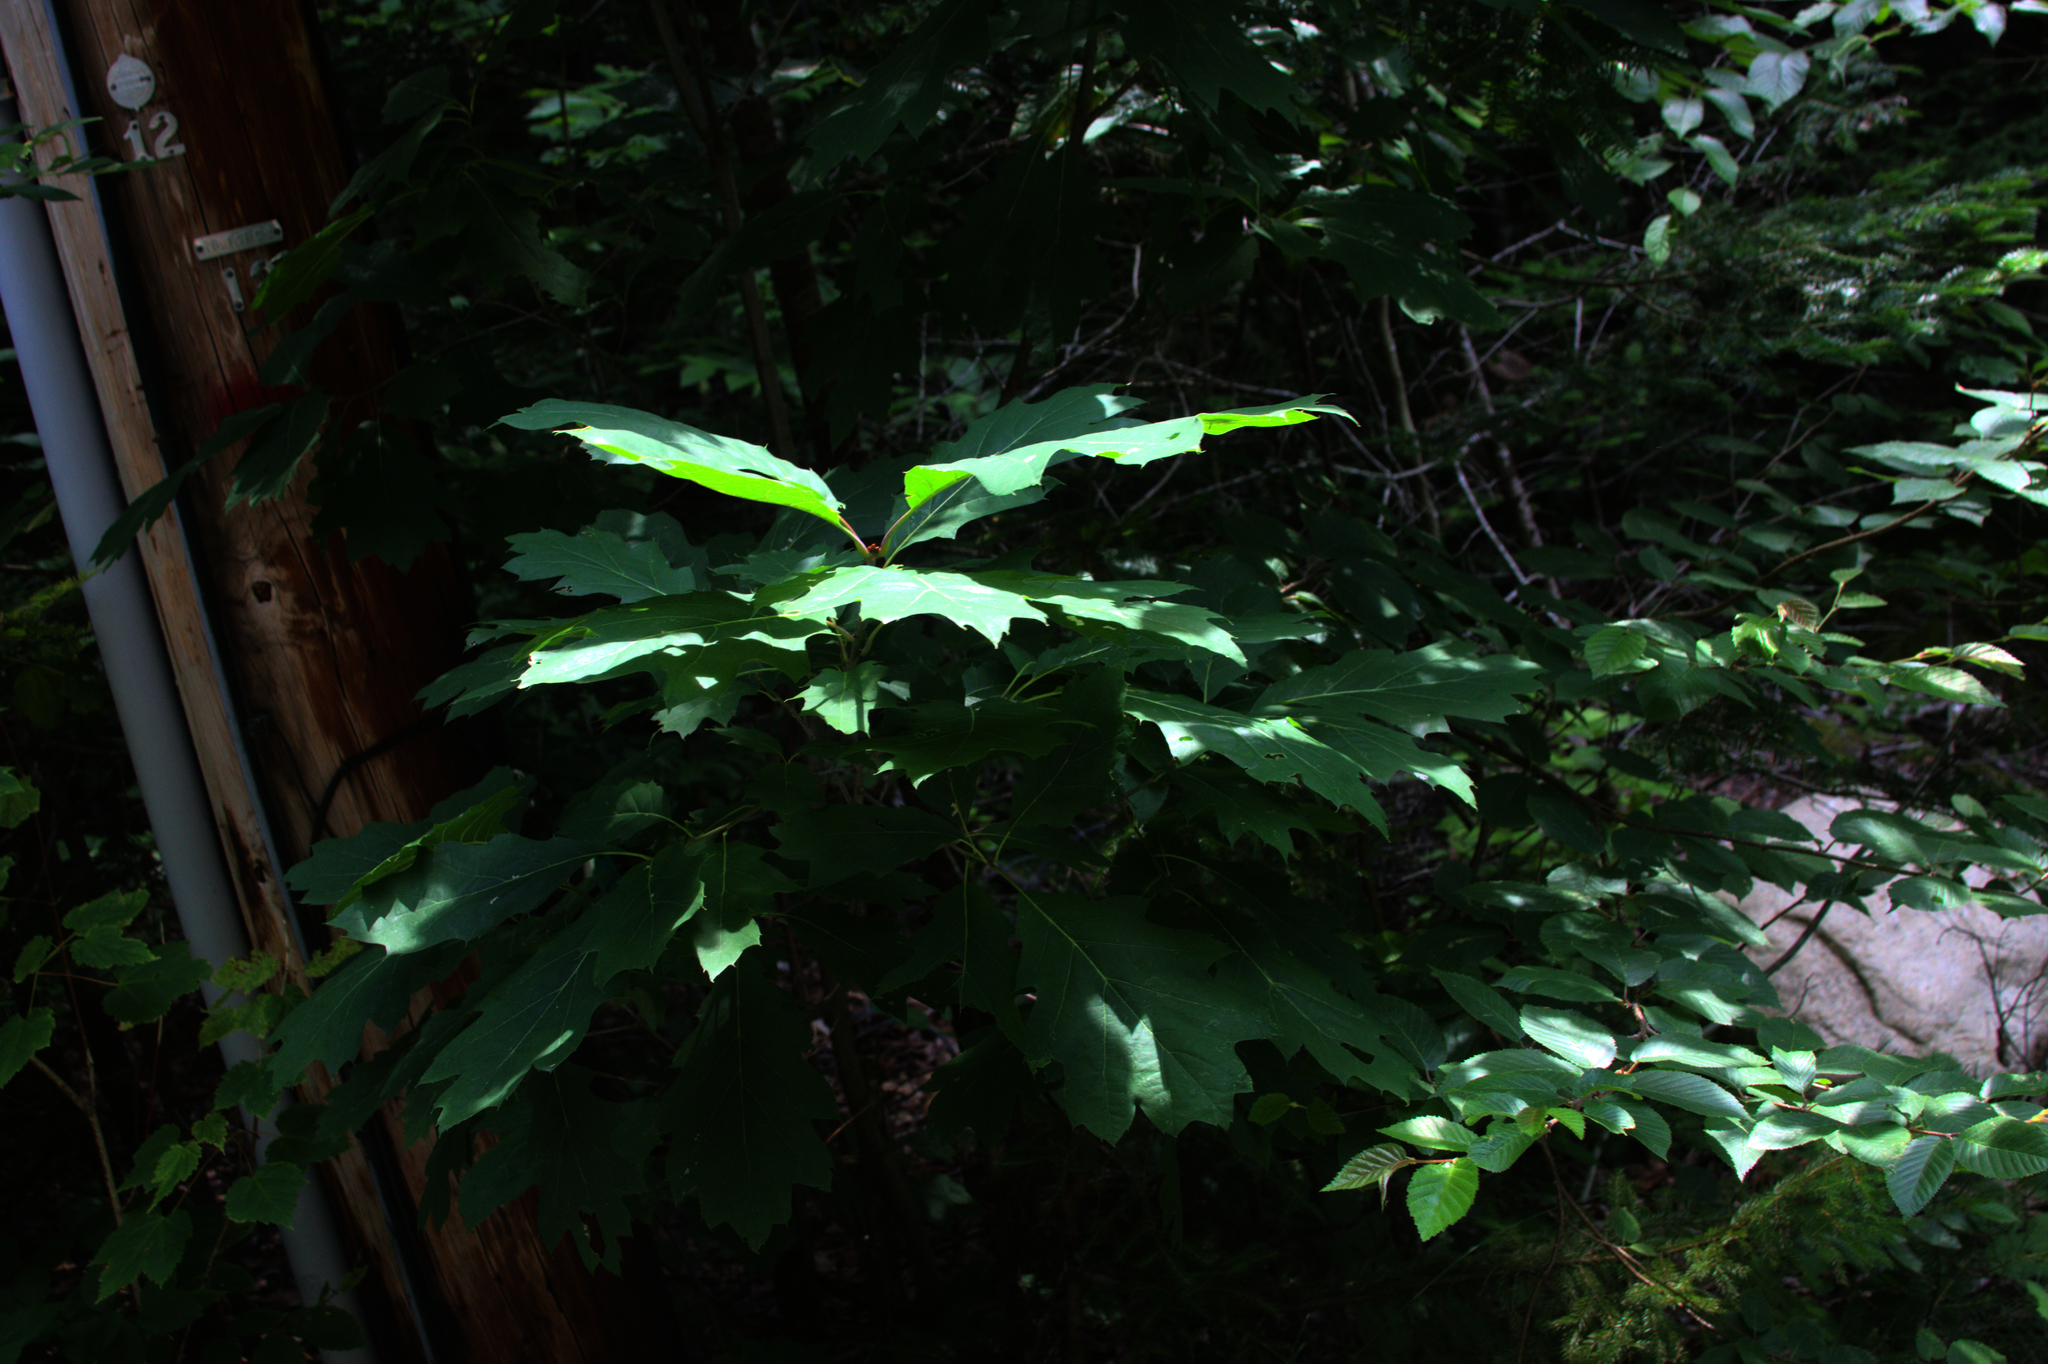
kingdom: Plantae
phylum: Tracheophyta
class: Magnoliopsida
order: Fagales
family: Fagaceae
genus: Quercus
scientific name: Quercus rubra
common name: Red oak
